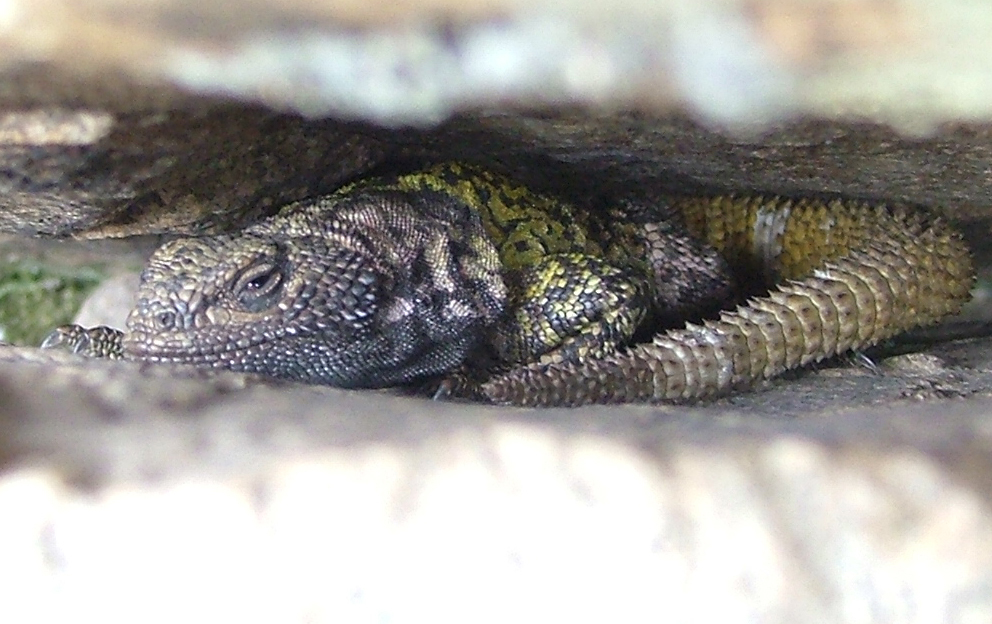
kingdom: Animalia
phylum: Chordata
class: Squamata
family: Liolaemidae
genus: Phymaturus
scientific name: Phymaturus palluma
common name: High mountain lizard
